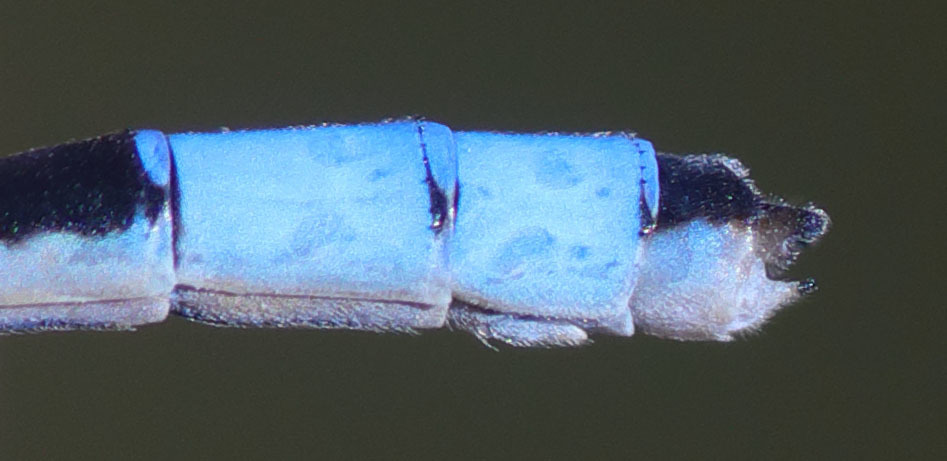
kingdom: Animalia
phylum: Arthropoda
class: Insecta
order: Odonata
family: Coenagrionidae
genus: Enallagma
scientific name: Enallagma praevarum
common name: Arroyo bluet
